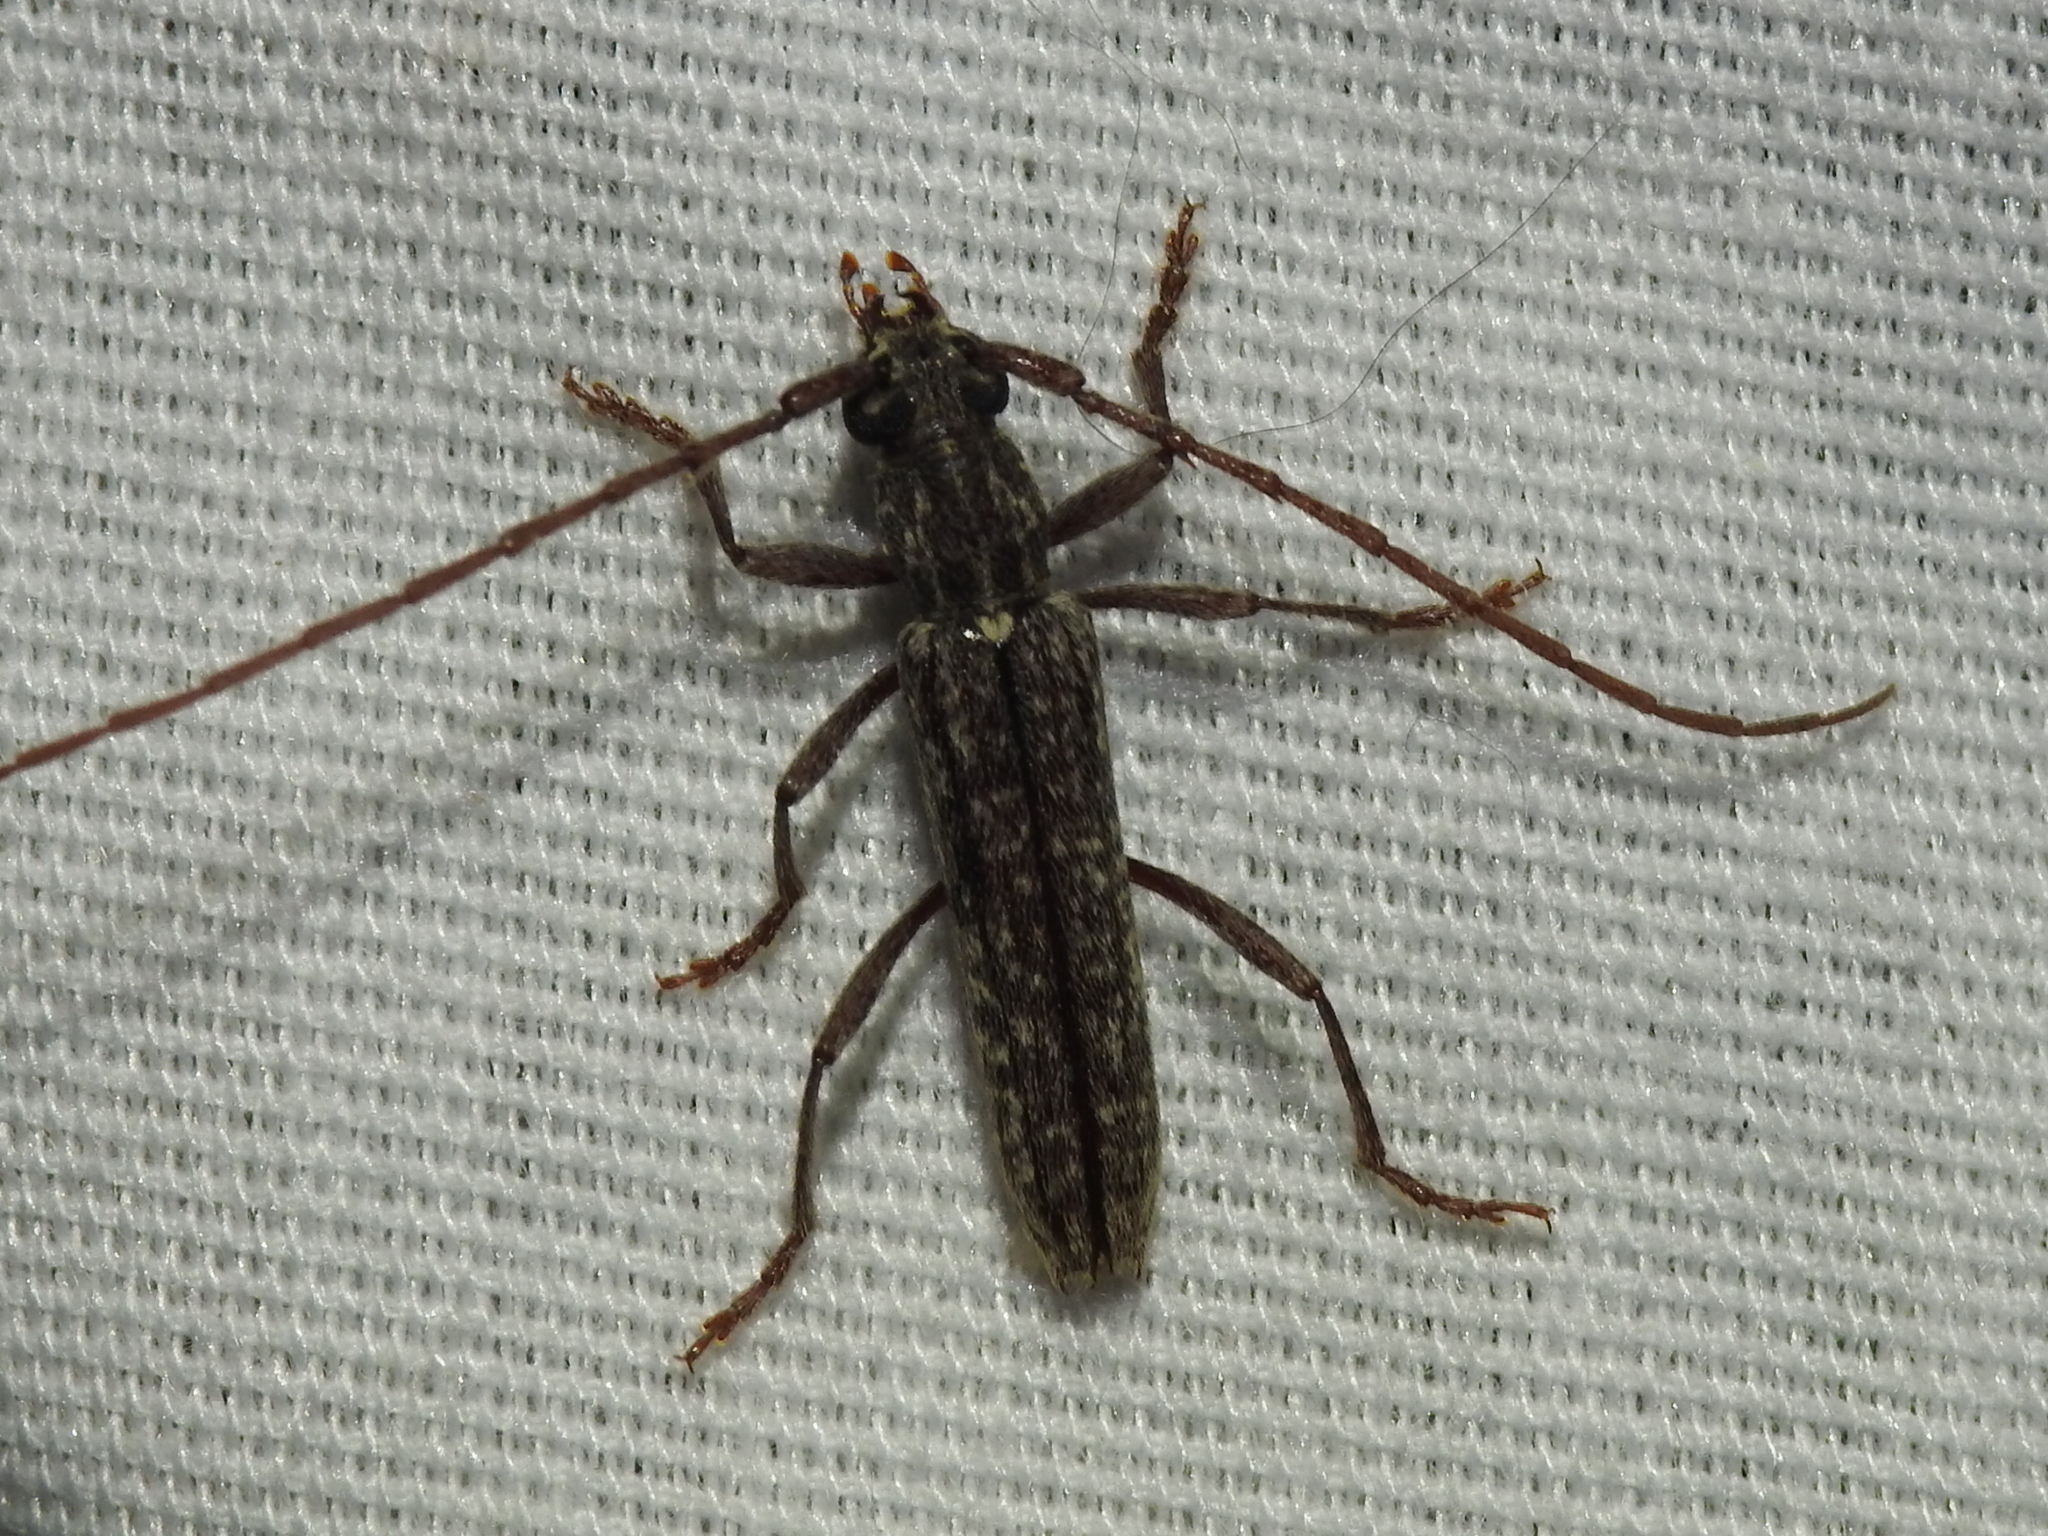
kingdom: Animalia
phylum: Arthropoda
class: Insecta
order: Coleoptera
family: Cerambycidae
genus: Anelaphus
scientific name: Anelaphus villosus
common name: Twig pruner
